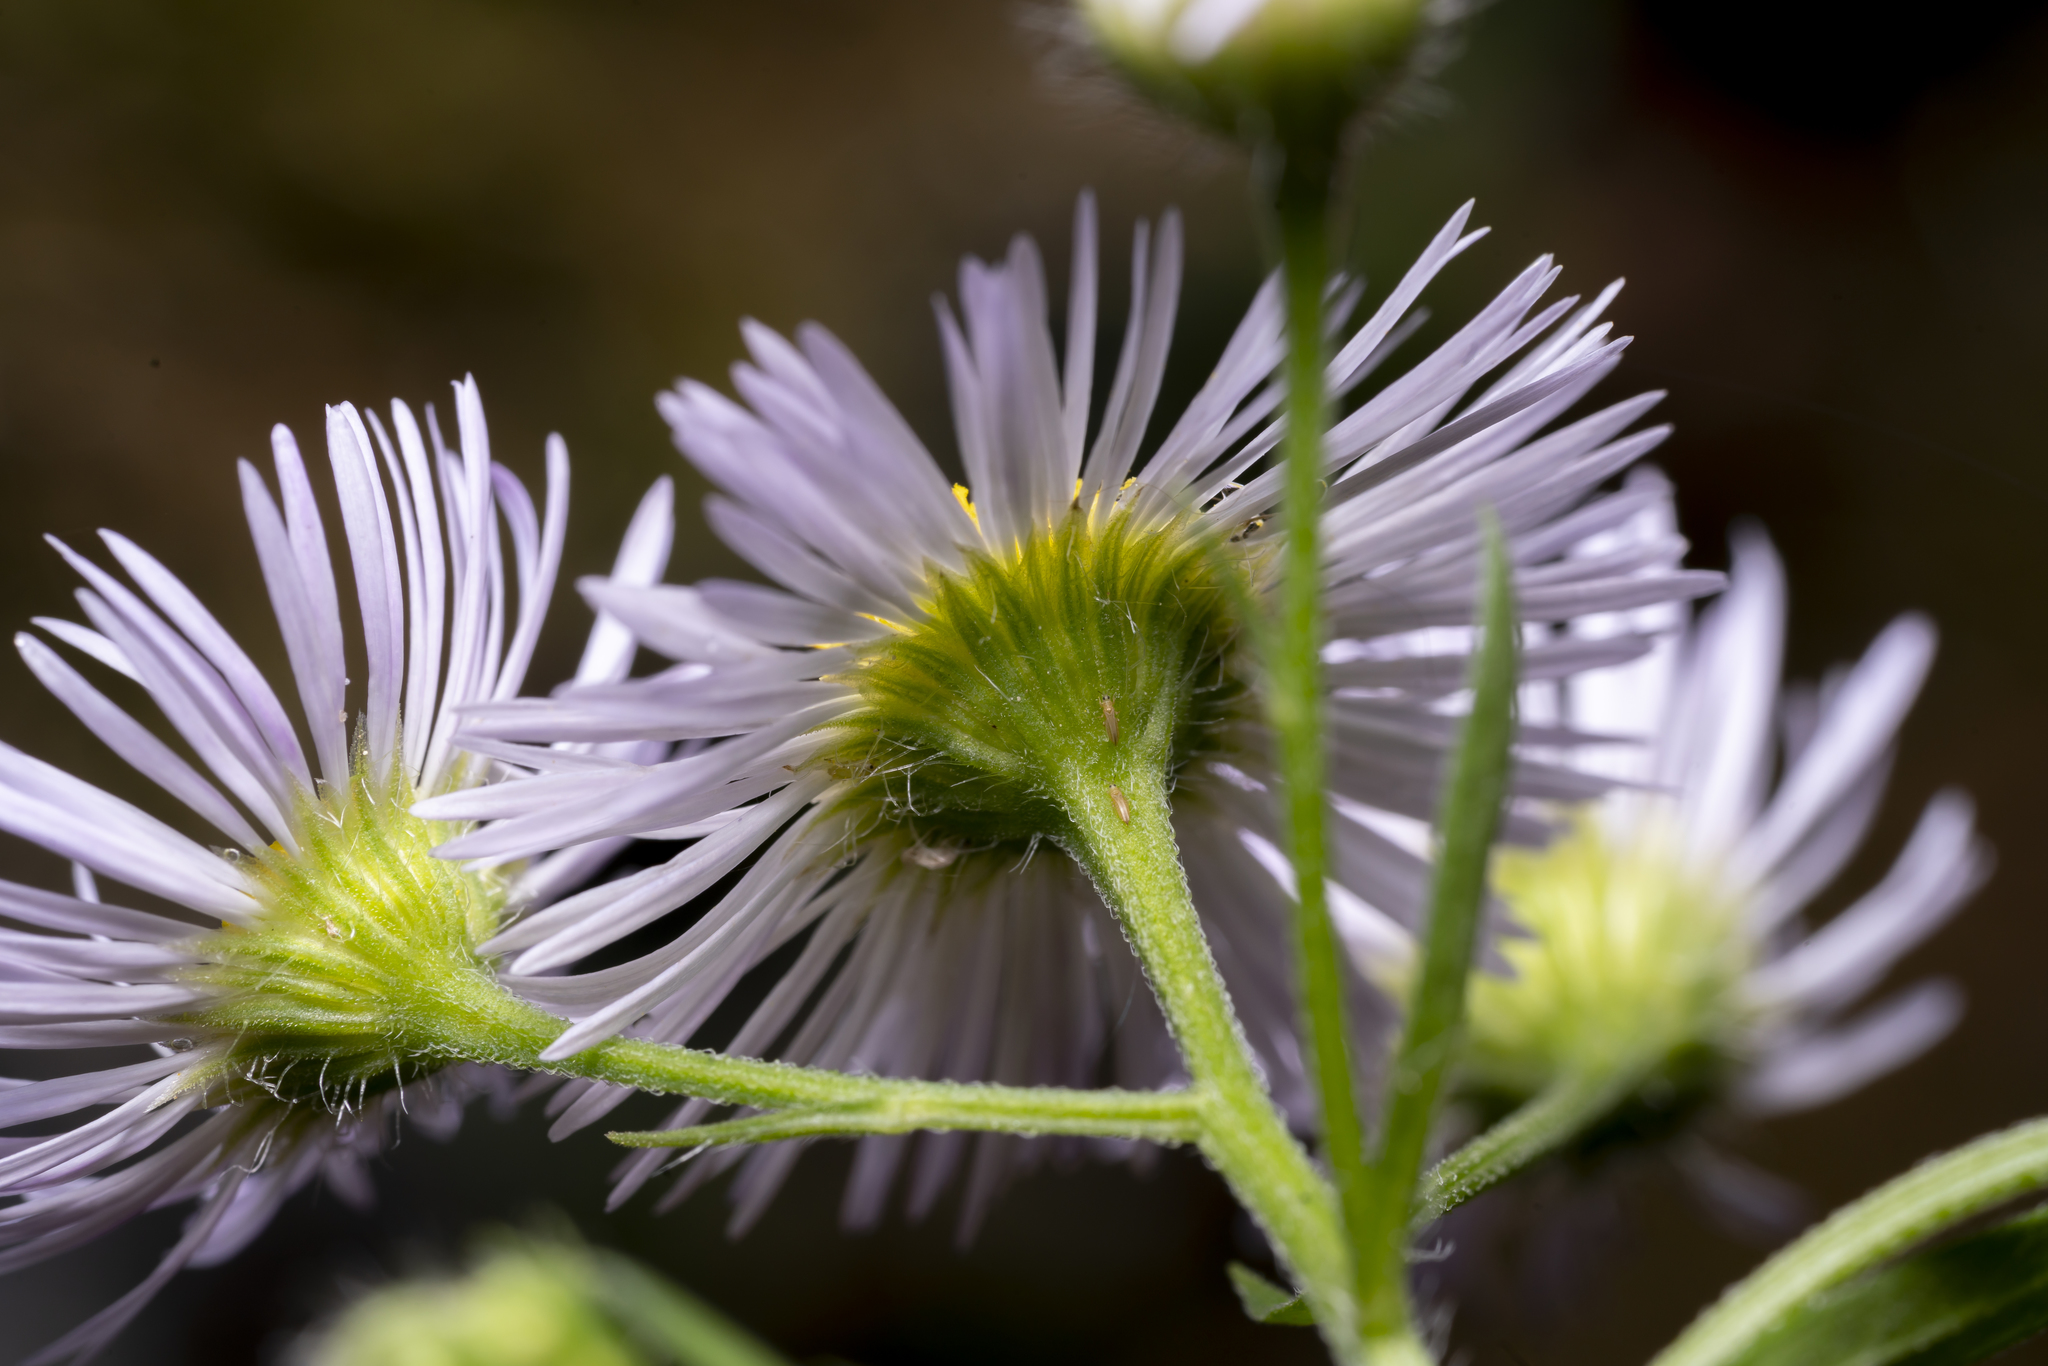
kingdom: Plantae
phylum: Tracheophyta
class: Magnoliopsida
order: Asterales
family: Asteraceae
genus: Erigeron
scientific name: Erigeron annuus
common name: Tall fleabane
